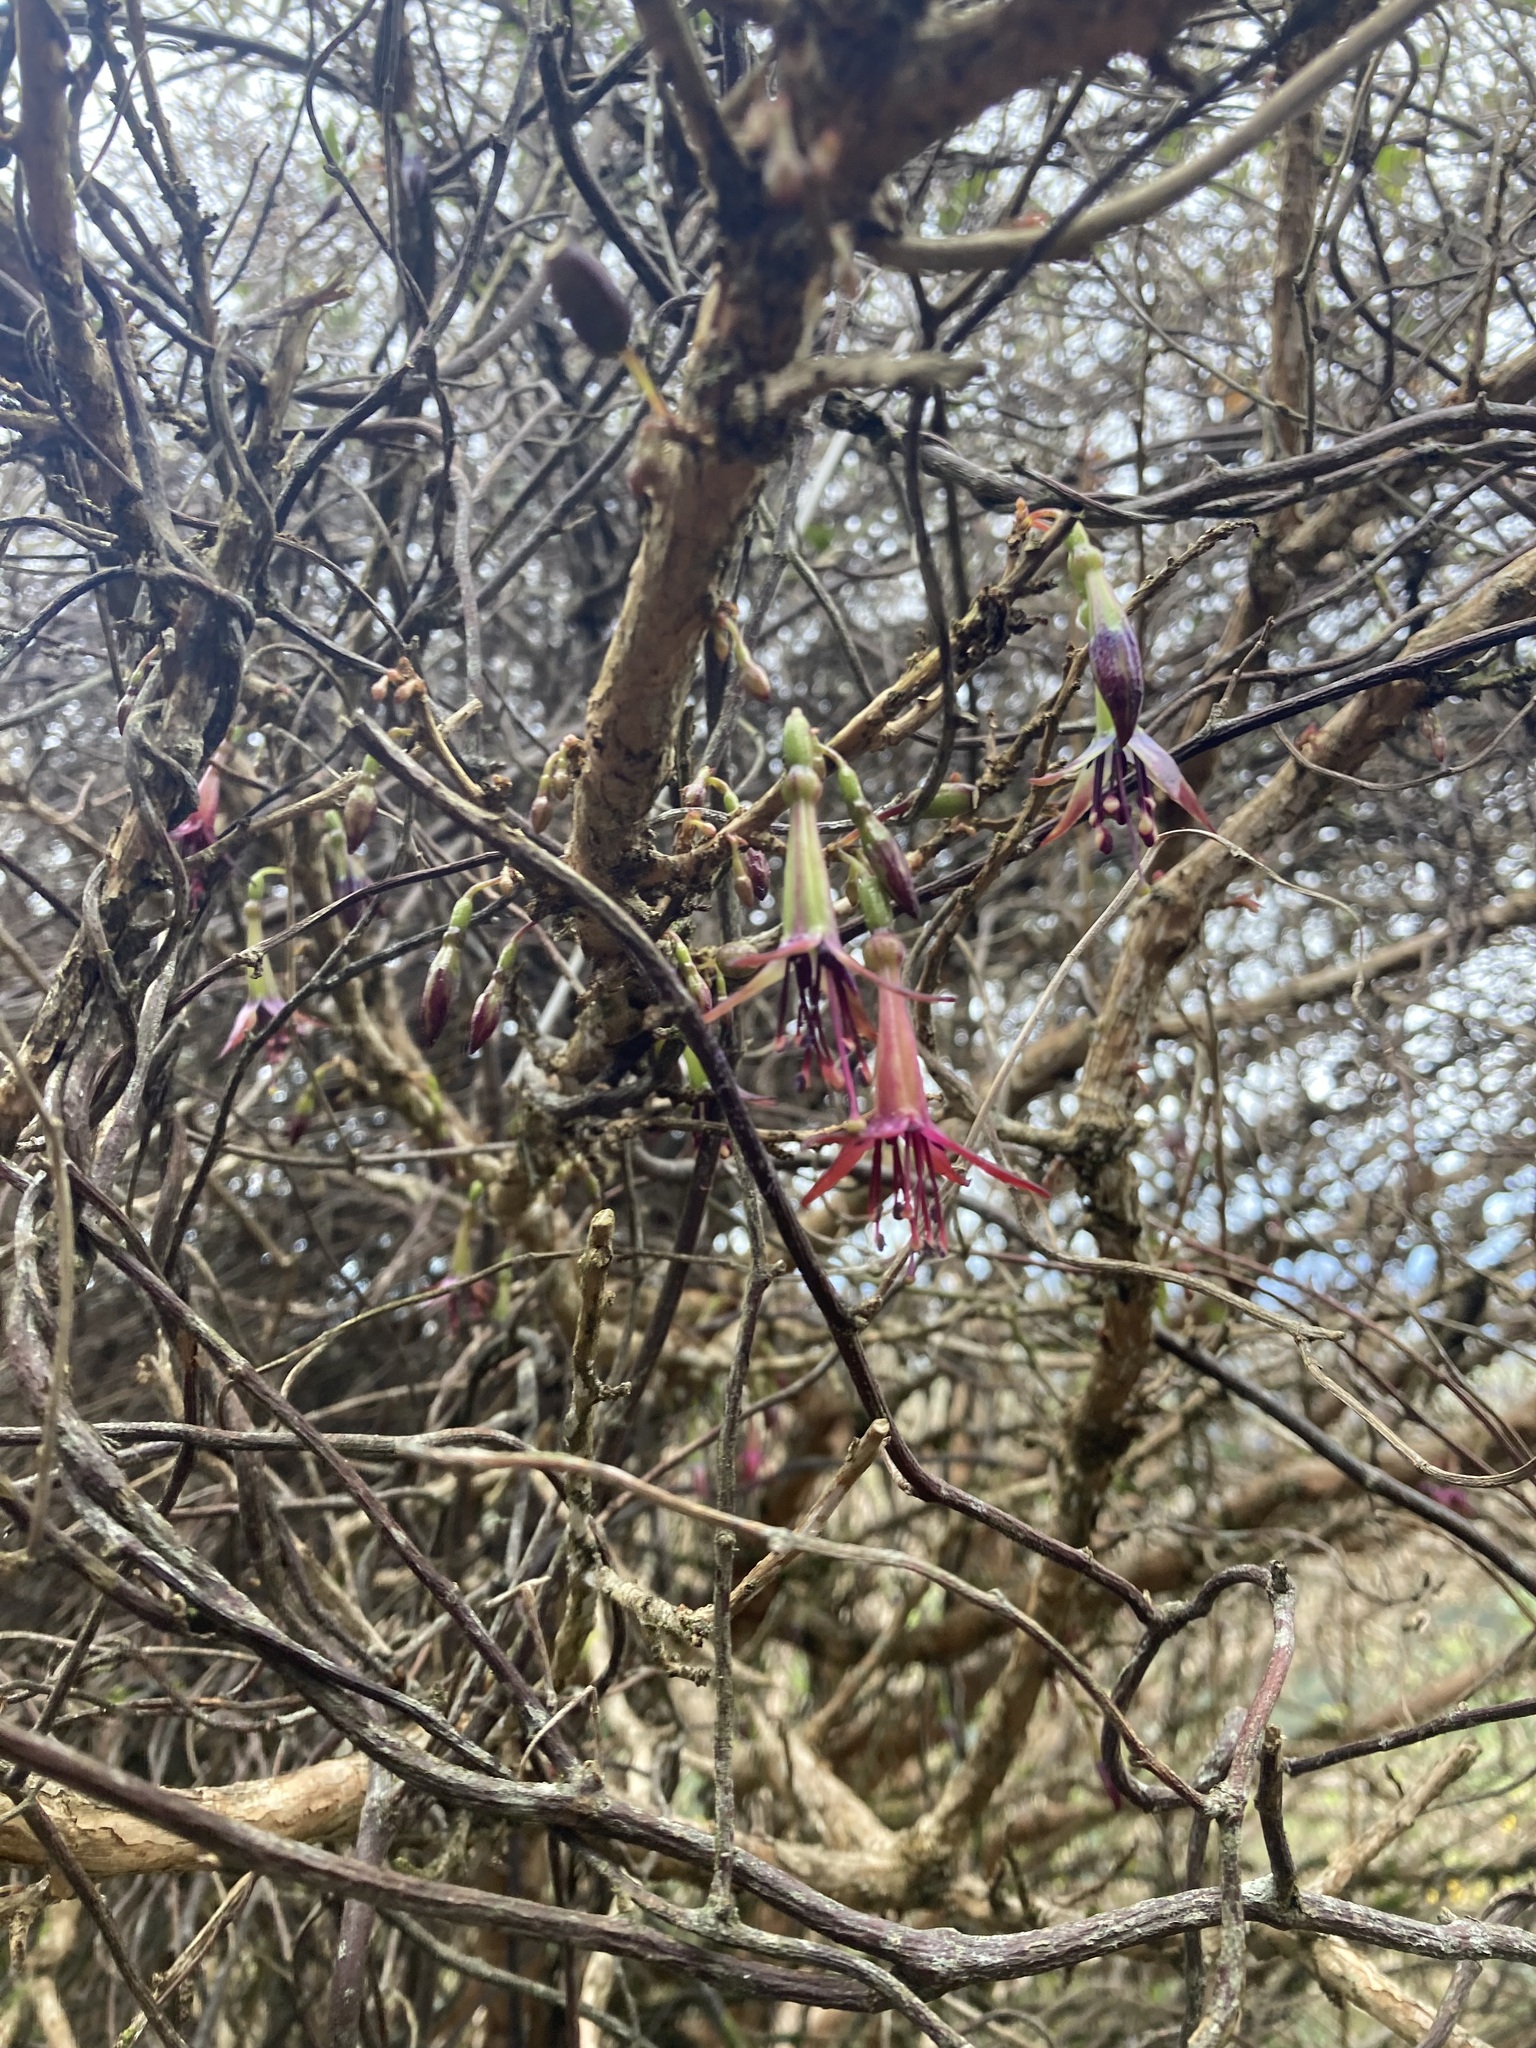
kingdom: Plantae
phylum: Tracheophyta
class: Magnoliopsida
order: Myrtales
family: Onagraceae
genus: Fuchsia
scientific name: Fuchsia excorticata
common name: Tree fuchsia
